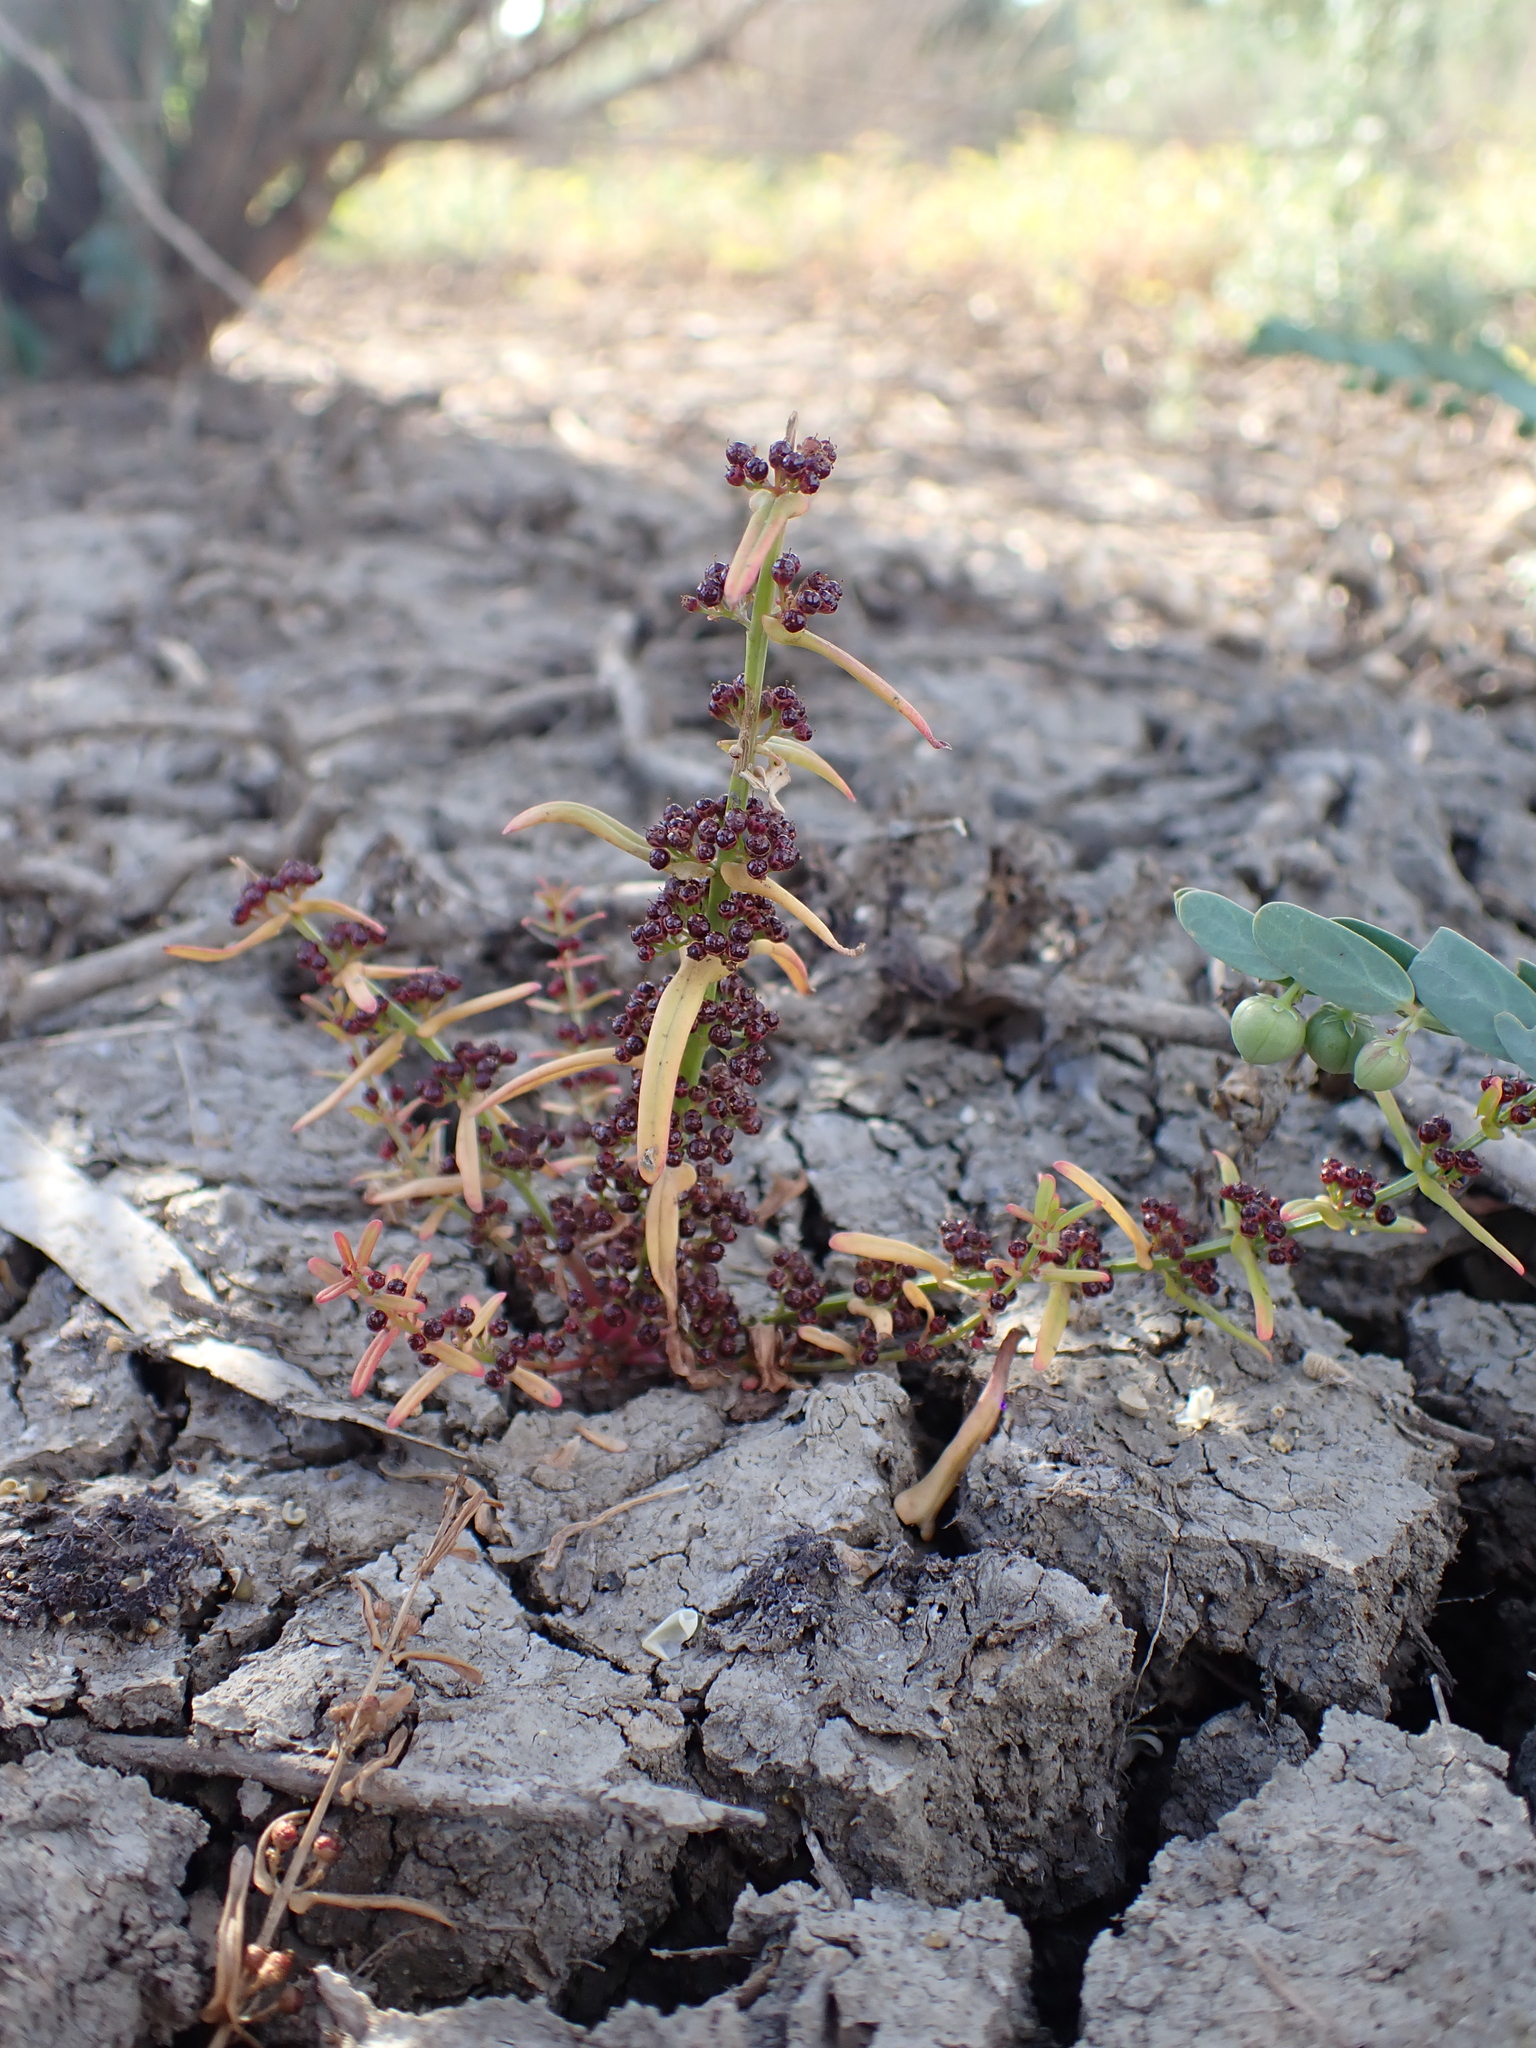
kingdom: Plantae
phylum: Tracheophyta
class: Magnoliopsida
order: Myrtales
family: Lythraceae
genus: Ammannia
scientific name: Ammannia auriculata
